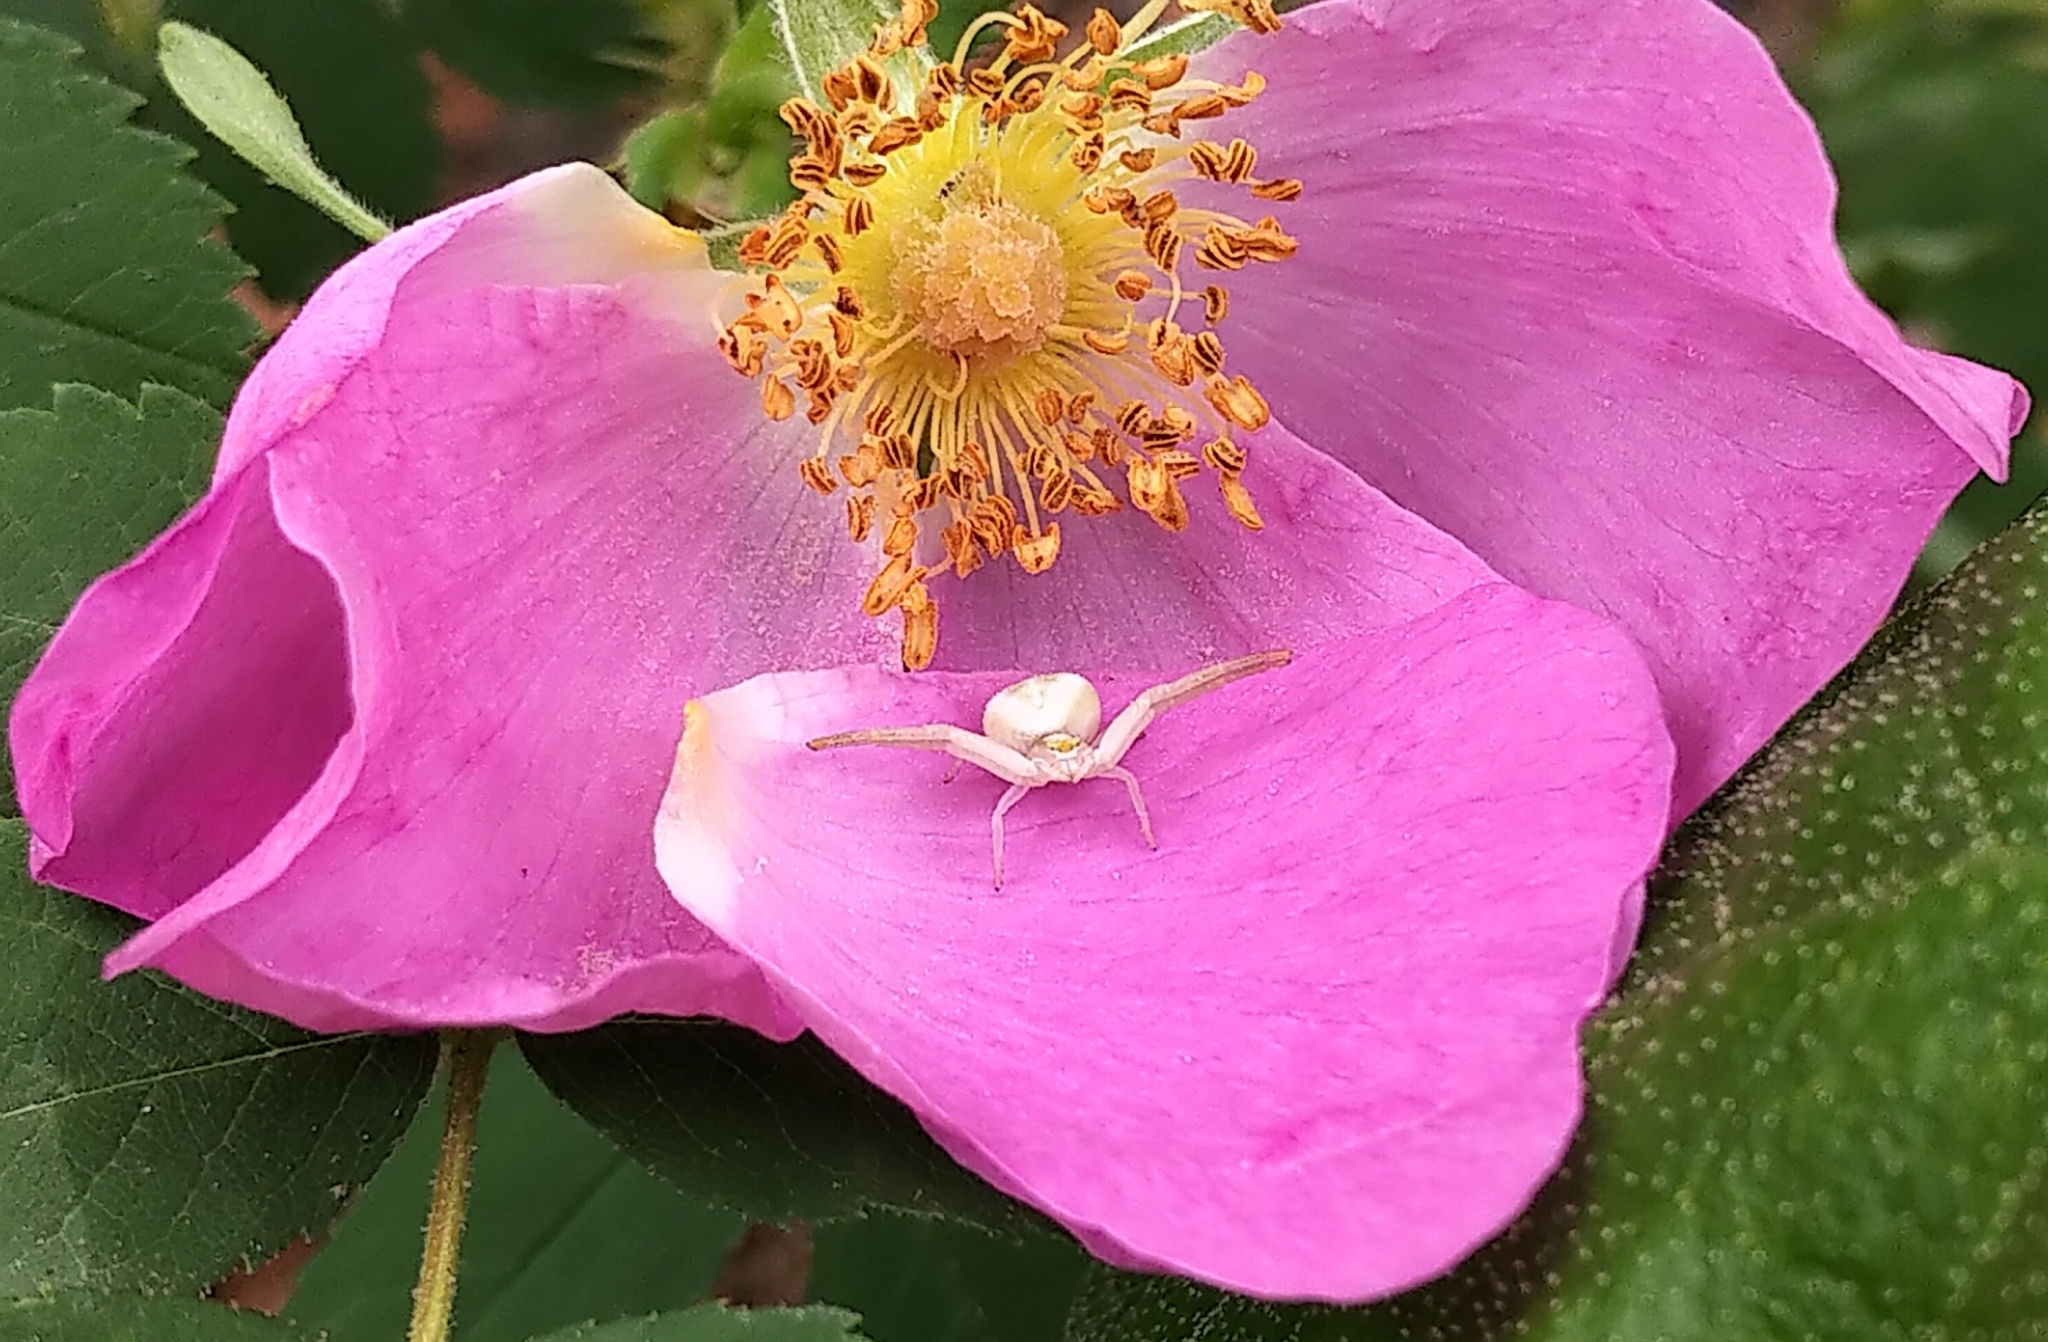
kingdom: Animalia
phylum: Arthropoda
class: Arachnida
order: Araneae
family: Thomisidae
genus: Misumena
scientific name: Misumena vatia
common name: Goldenrod crab spider
